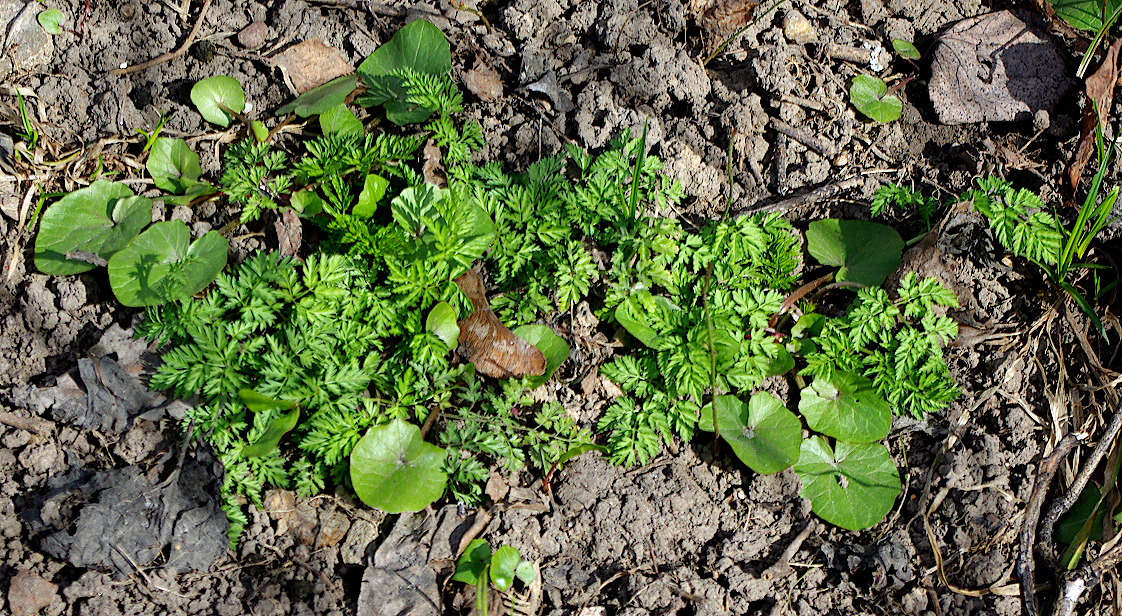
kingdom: Plantae
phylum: Tracheophyta
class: Magnoliopsida
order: Apiales
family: Apiaceae
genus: Anthriscus
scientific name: Anthriscus sylvestris
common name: Cow parsley
